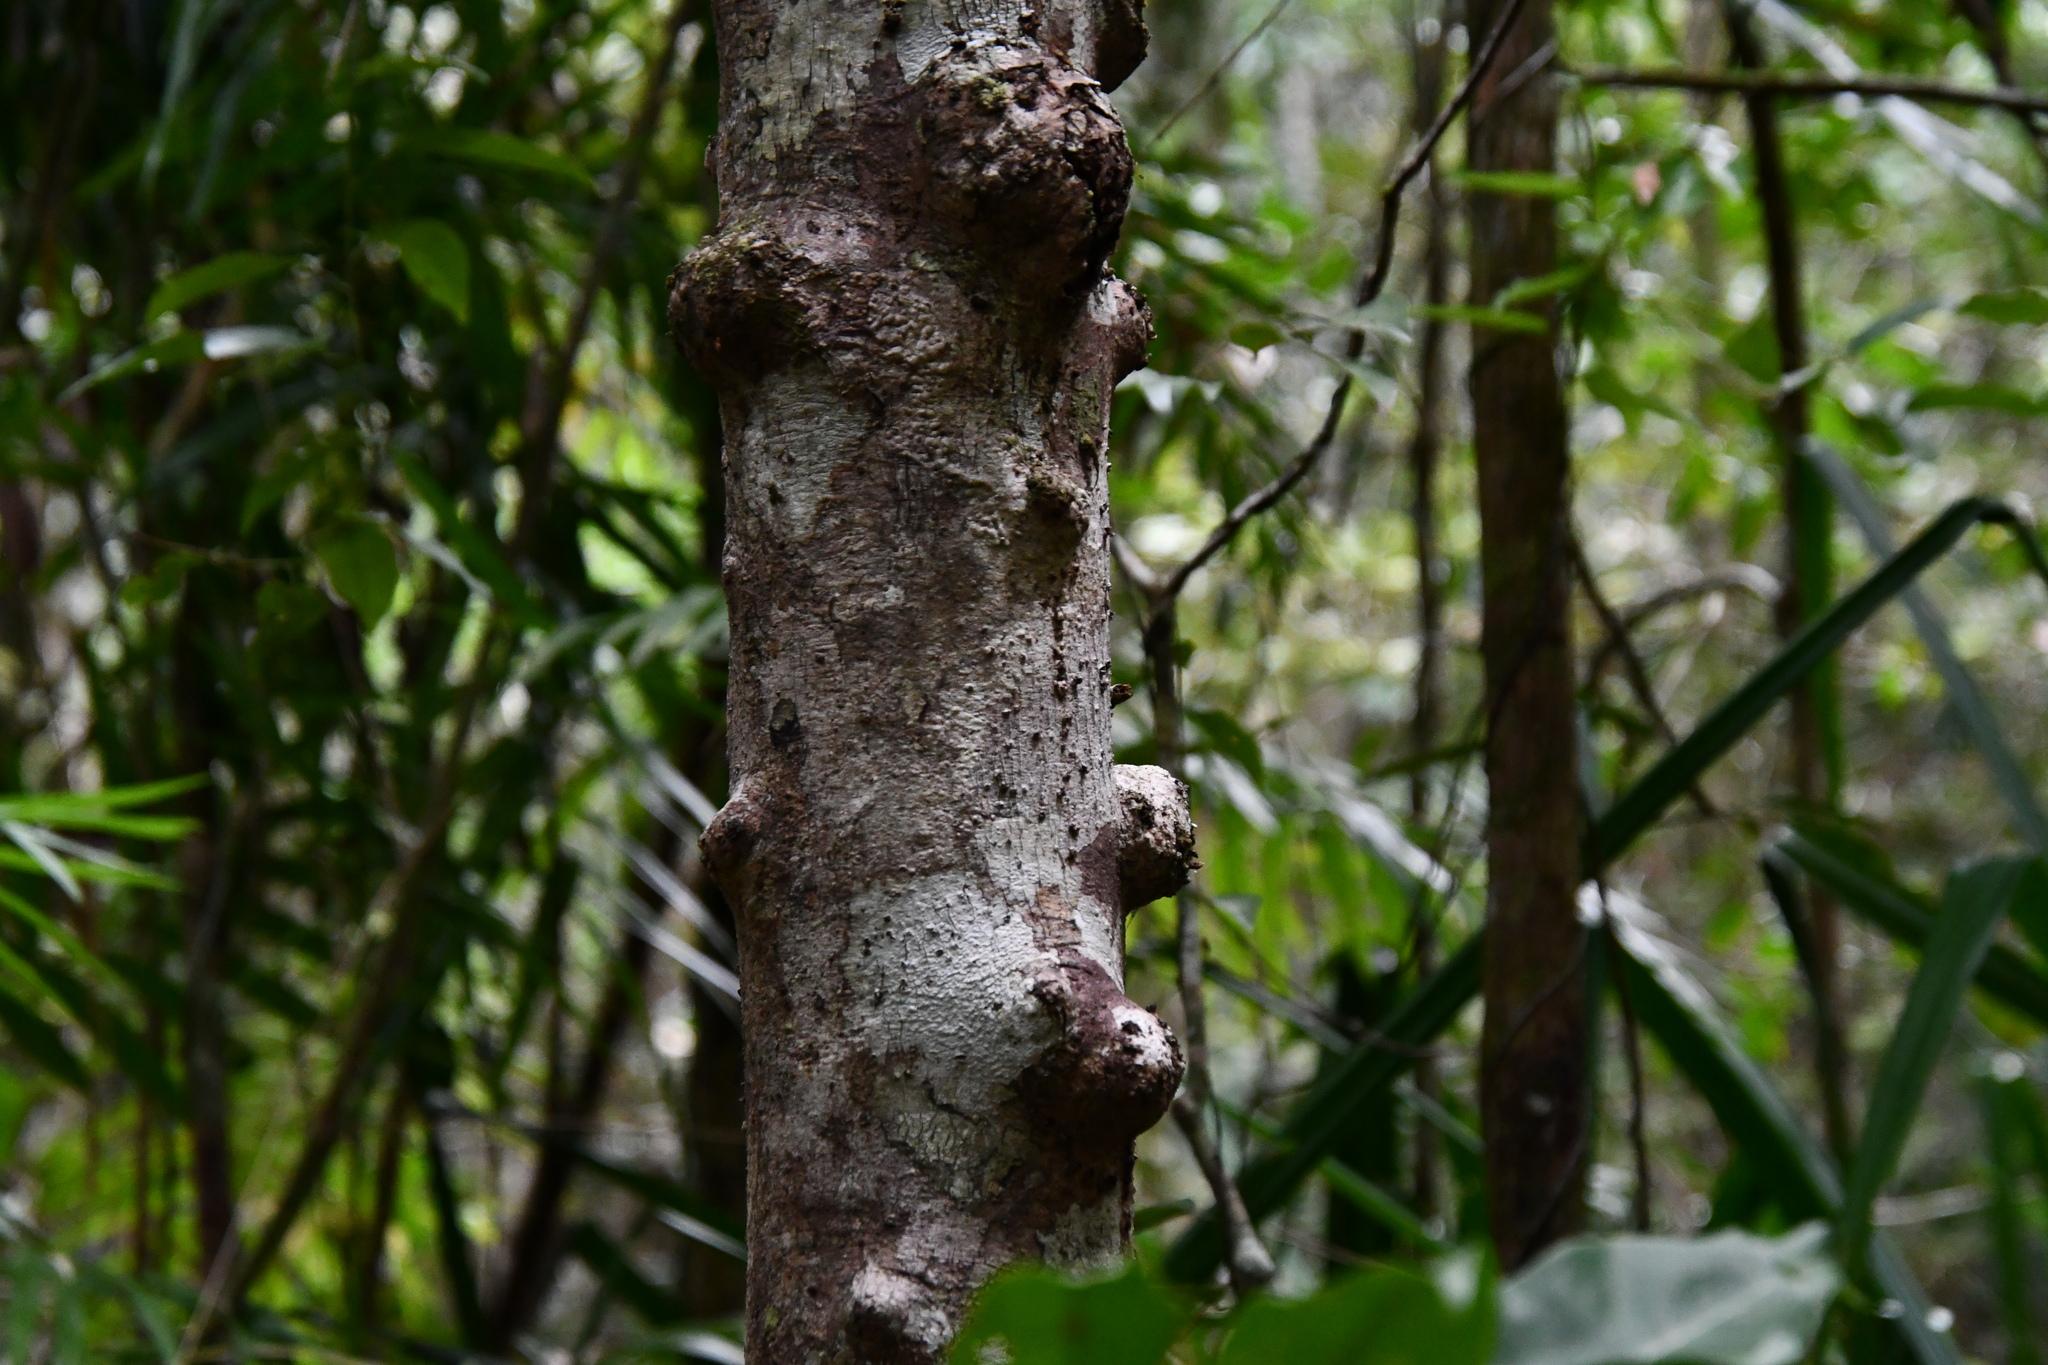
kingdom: Plantae
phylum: Tracheophyta
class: Magnoliopsida
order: Malvales
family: Thymelaeaceae
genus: Phaleria
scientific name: Phaleria clerodendron
